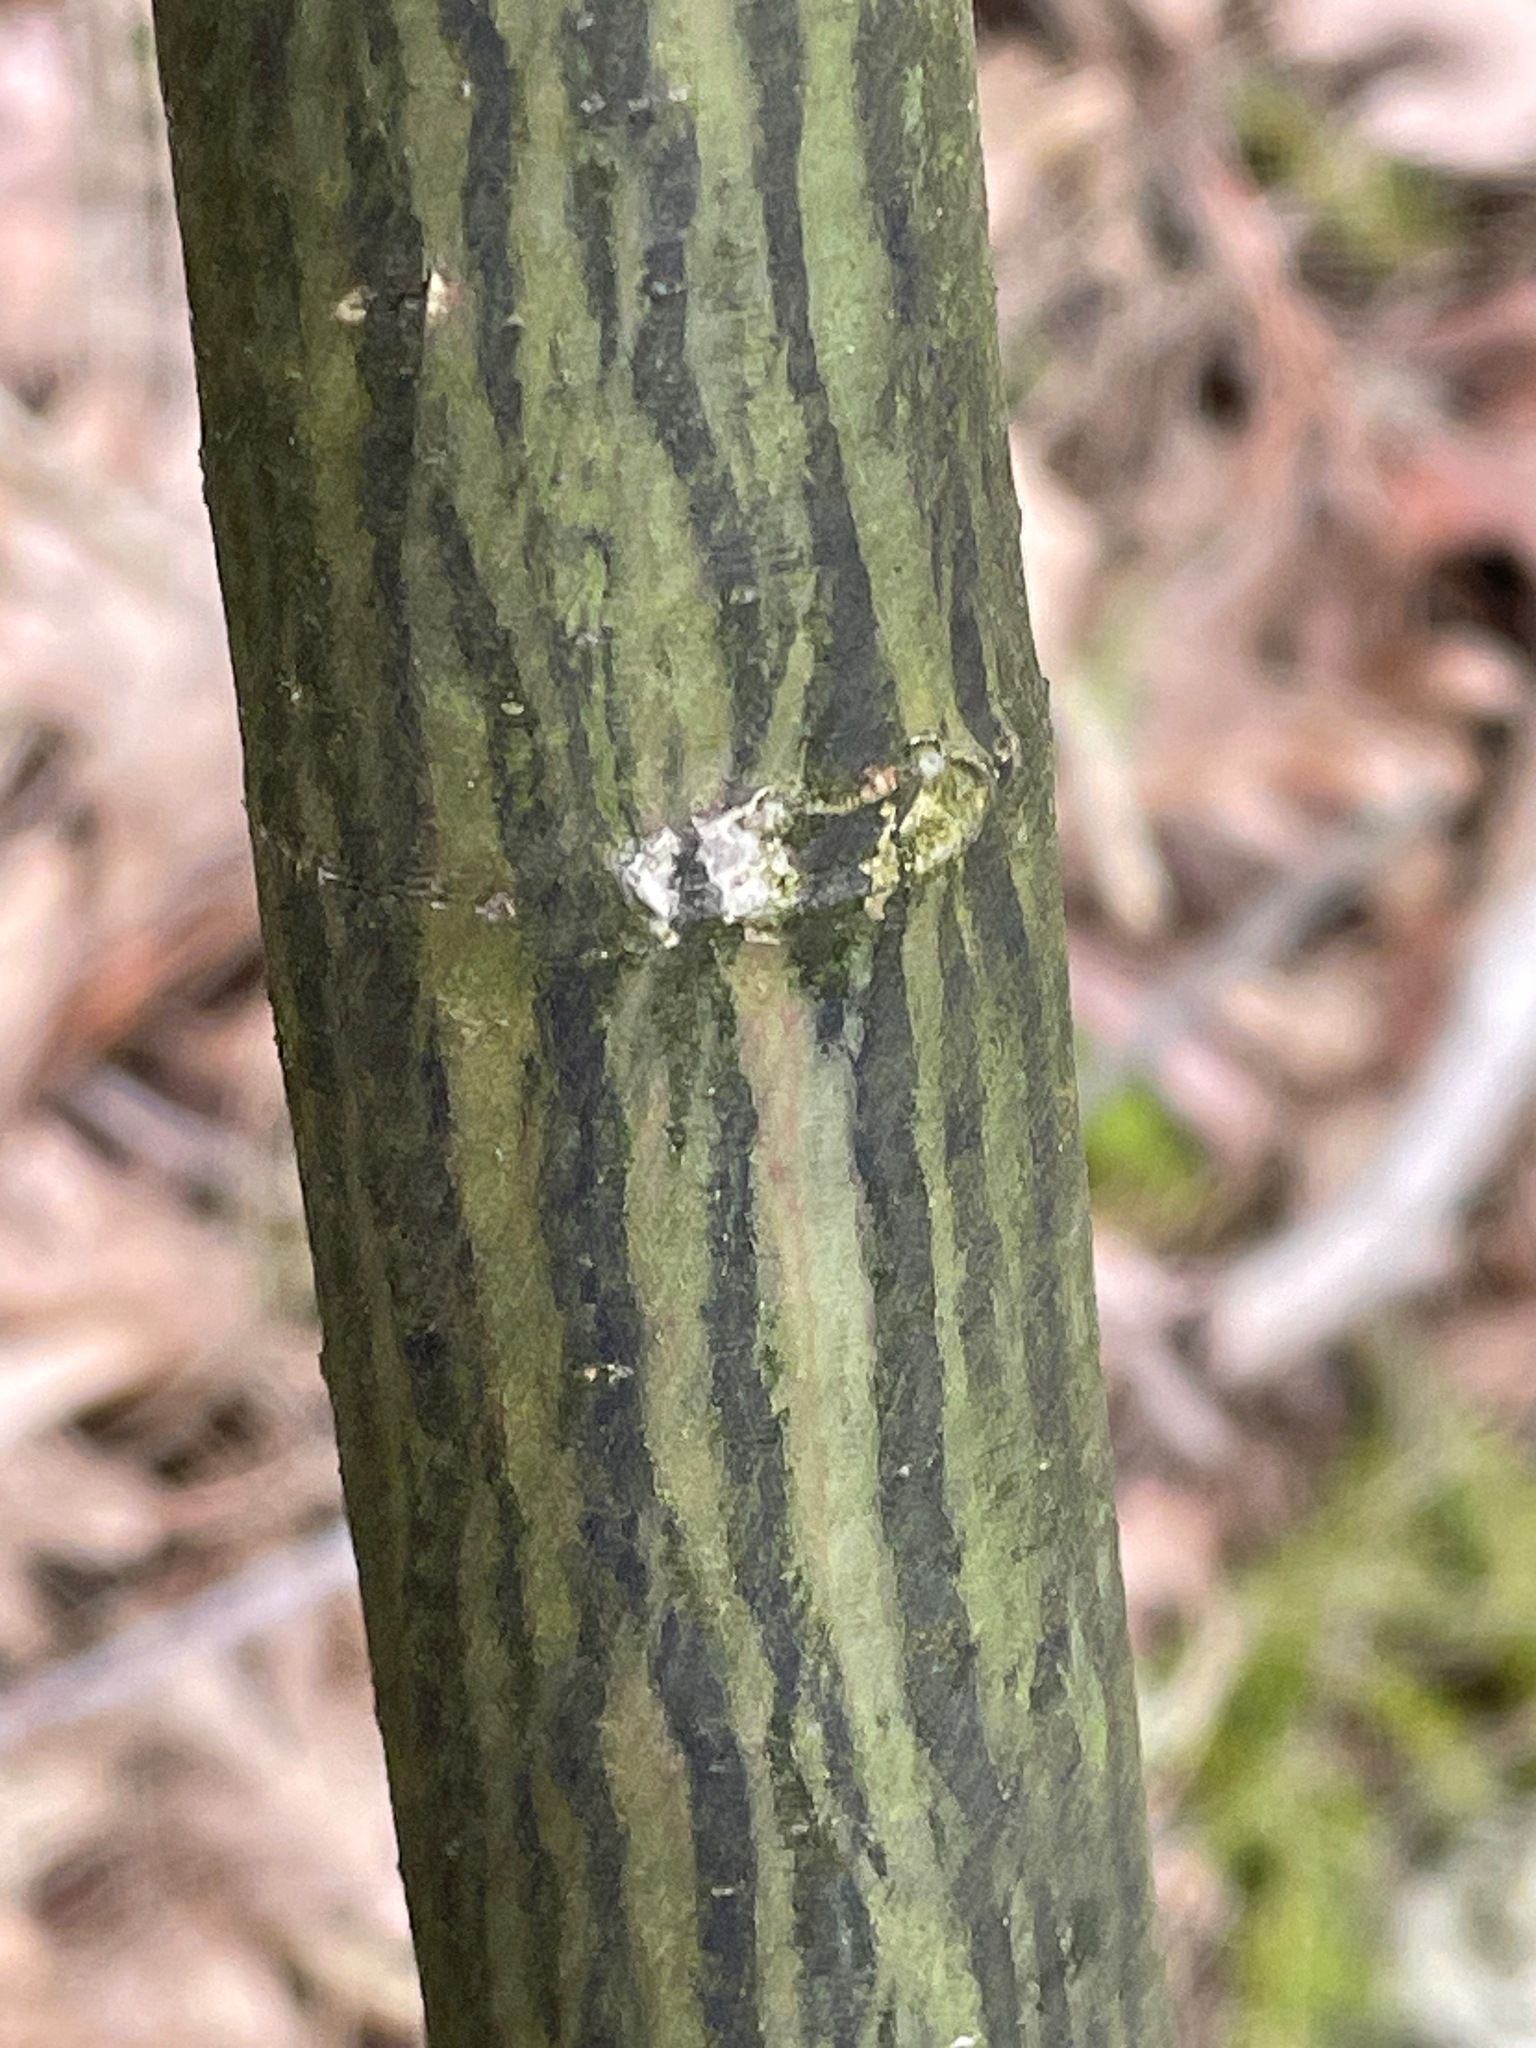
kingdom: Plantae
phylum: Tracheophyta
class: Magnoliopsida
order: Sapindales
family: Sapindaceae
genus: Acer
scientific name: Acer pensylvanicum
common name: Moosewood
